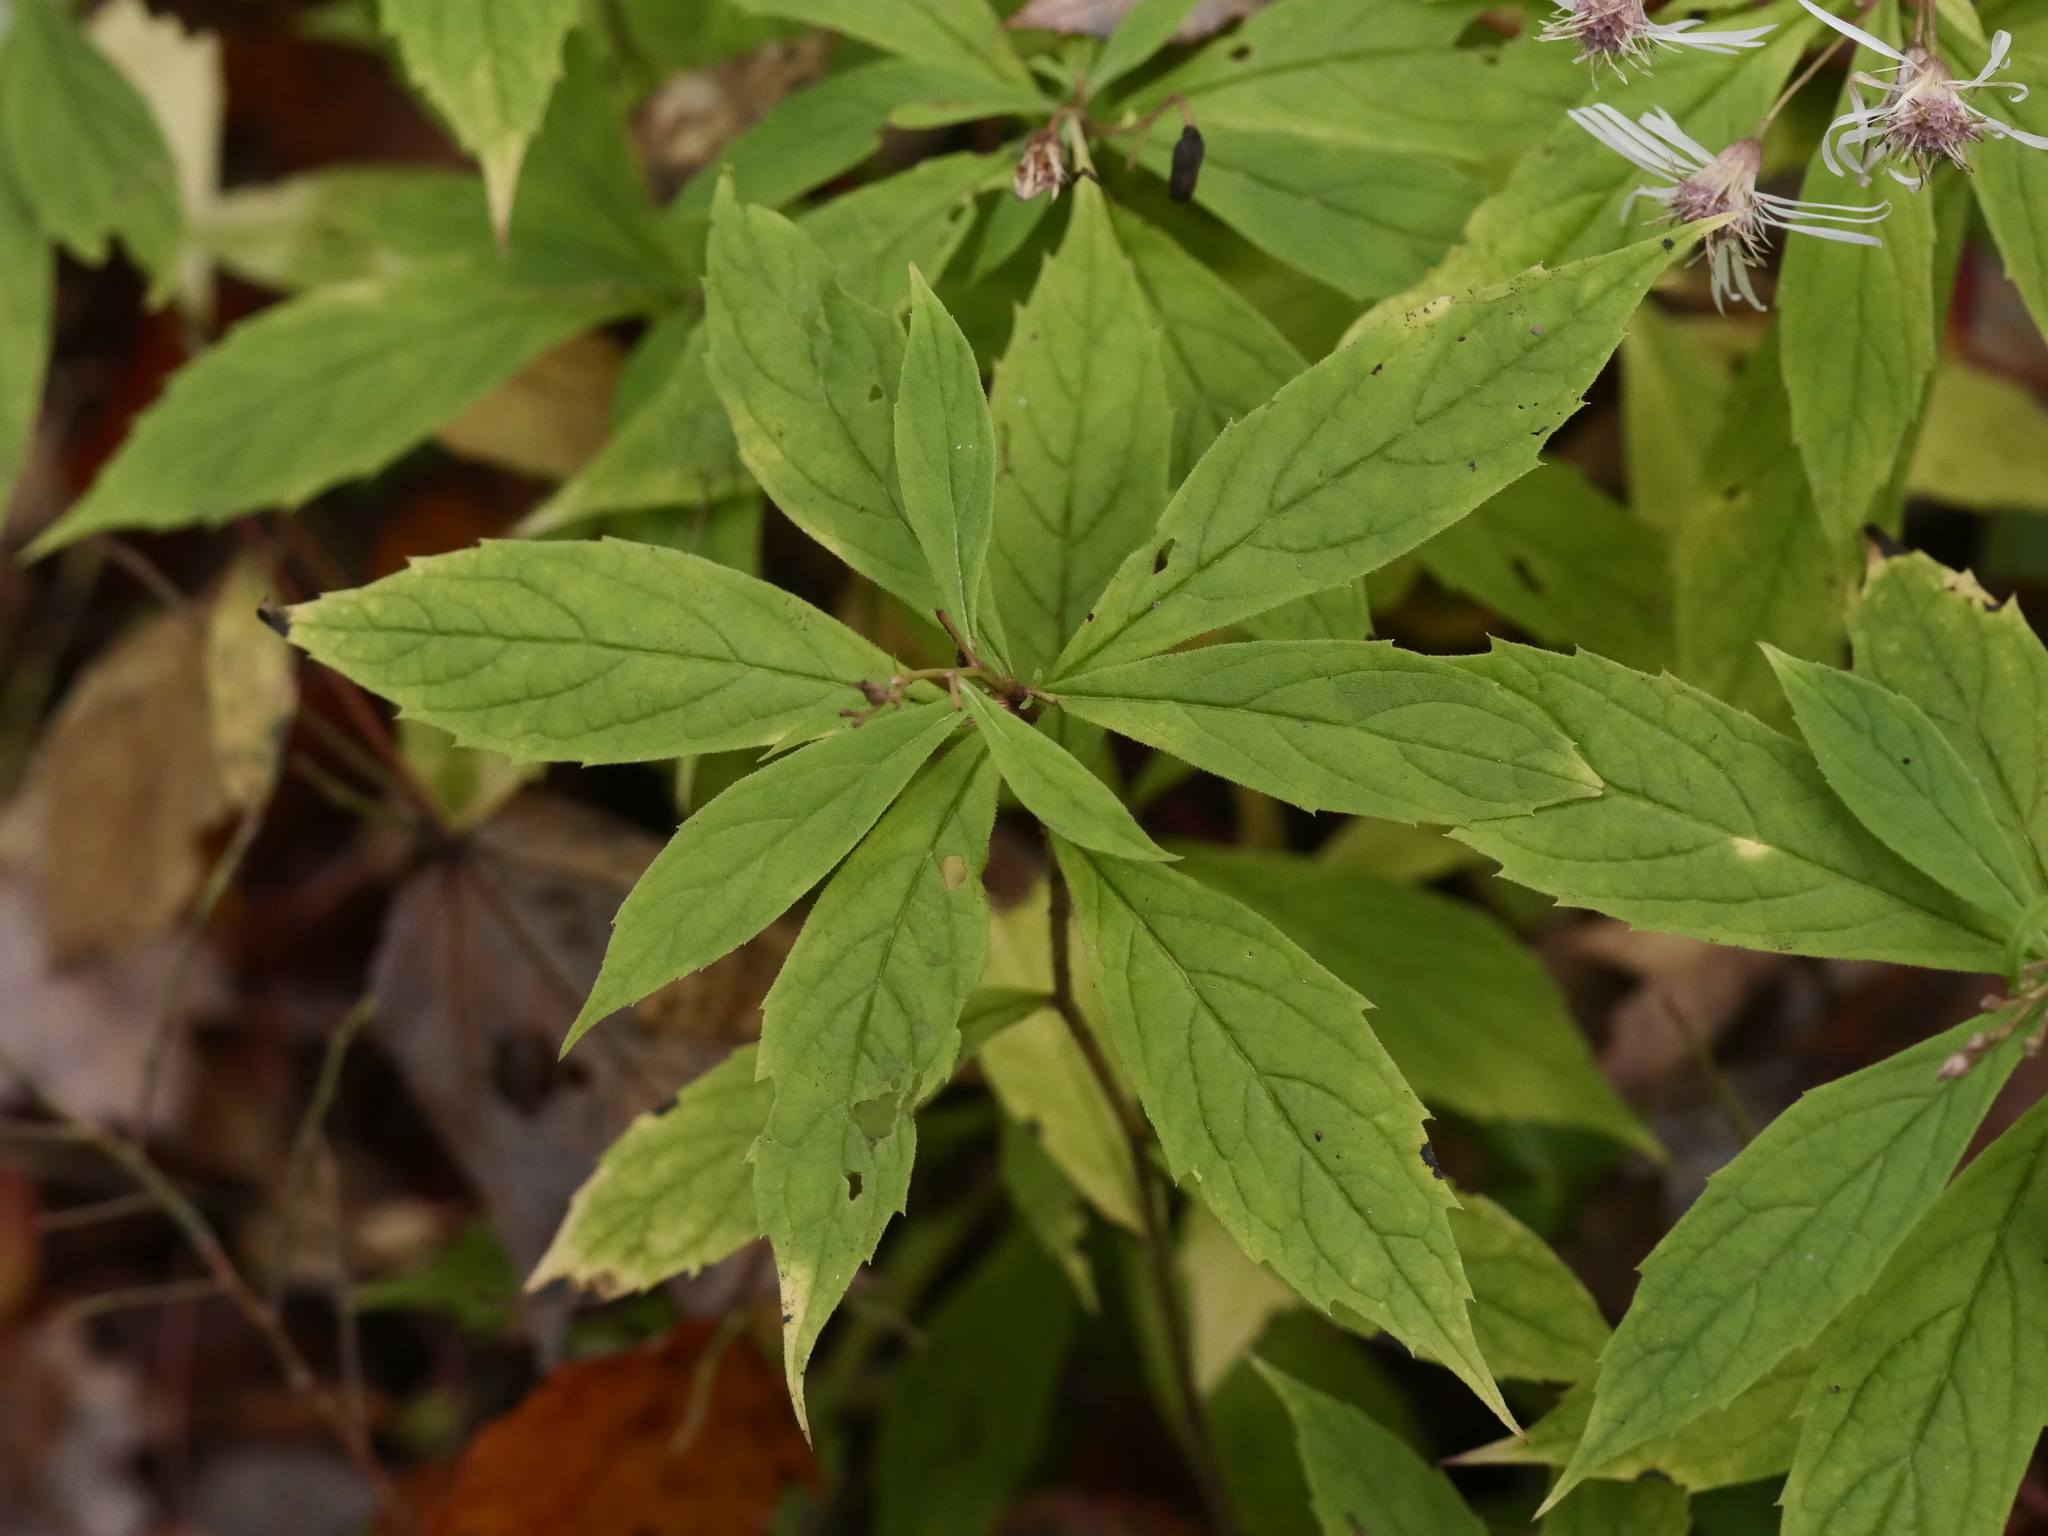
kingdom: Plantae
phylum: Tracheophyta
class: Magnoliopsida
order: Asterales
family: Asteraceae
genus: Oclemena
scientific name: Oclemena acuminata
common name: Mountain aster
